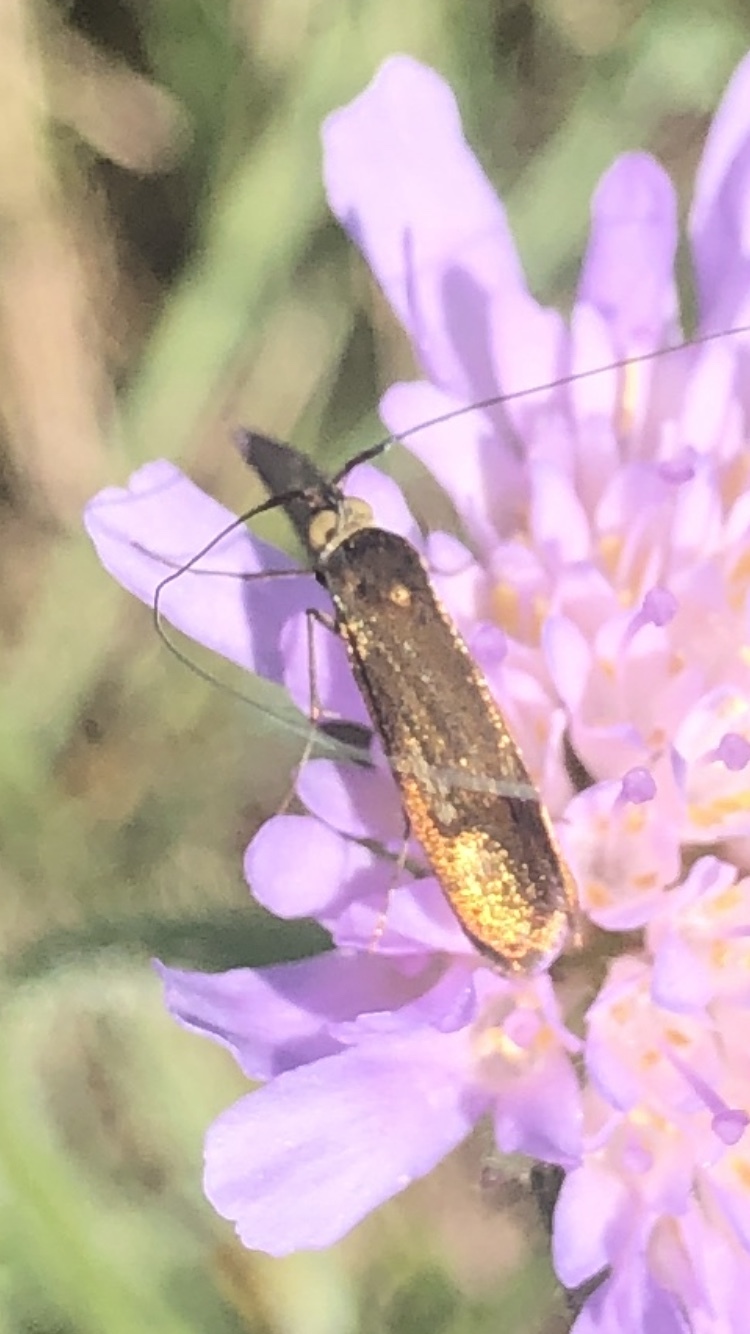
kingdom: Animalia
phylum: Arthropoda
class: Insecta
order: Lepidoptera
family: Adelidae
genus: Nemophora
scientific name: Nemophora metallica
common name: Brassy long-horn
